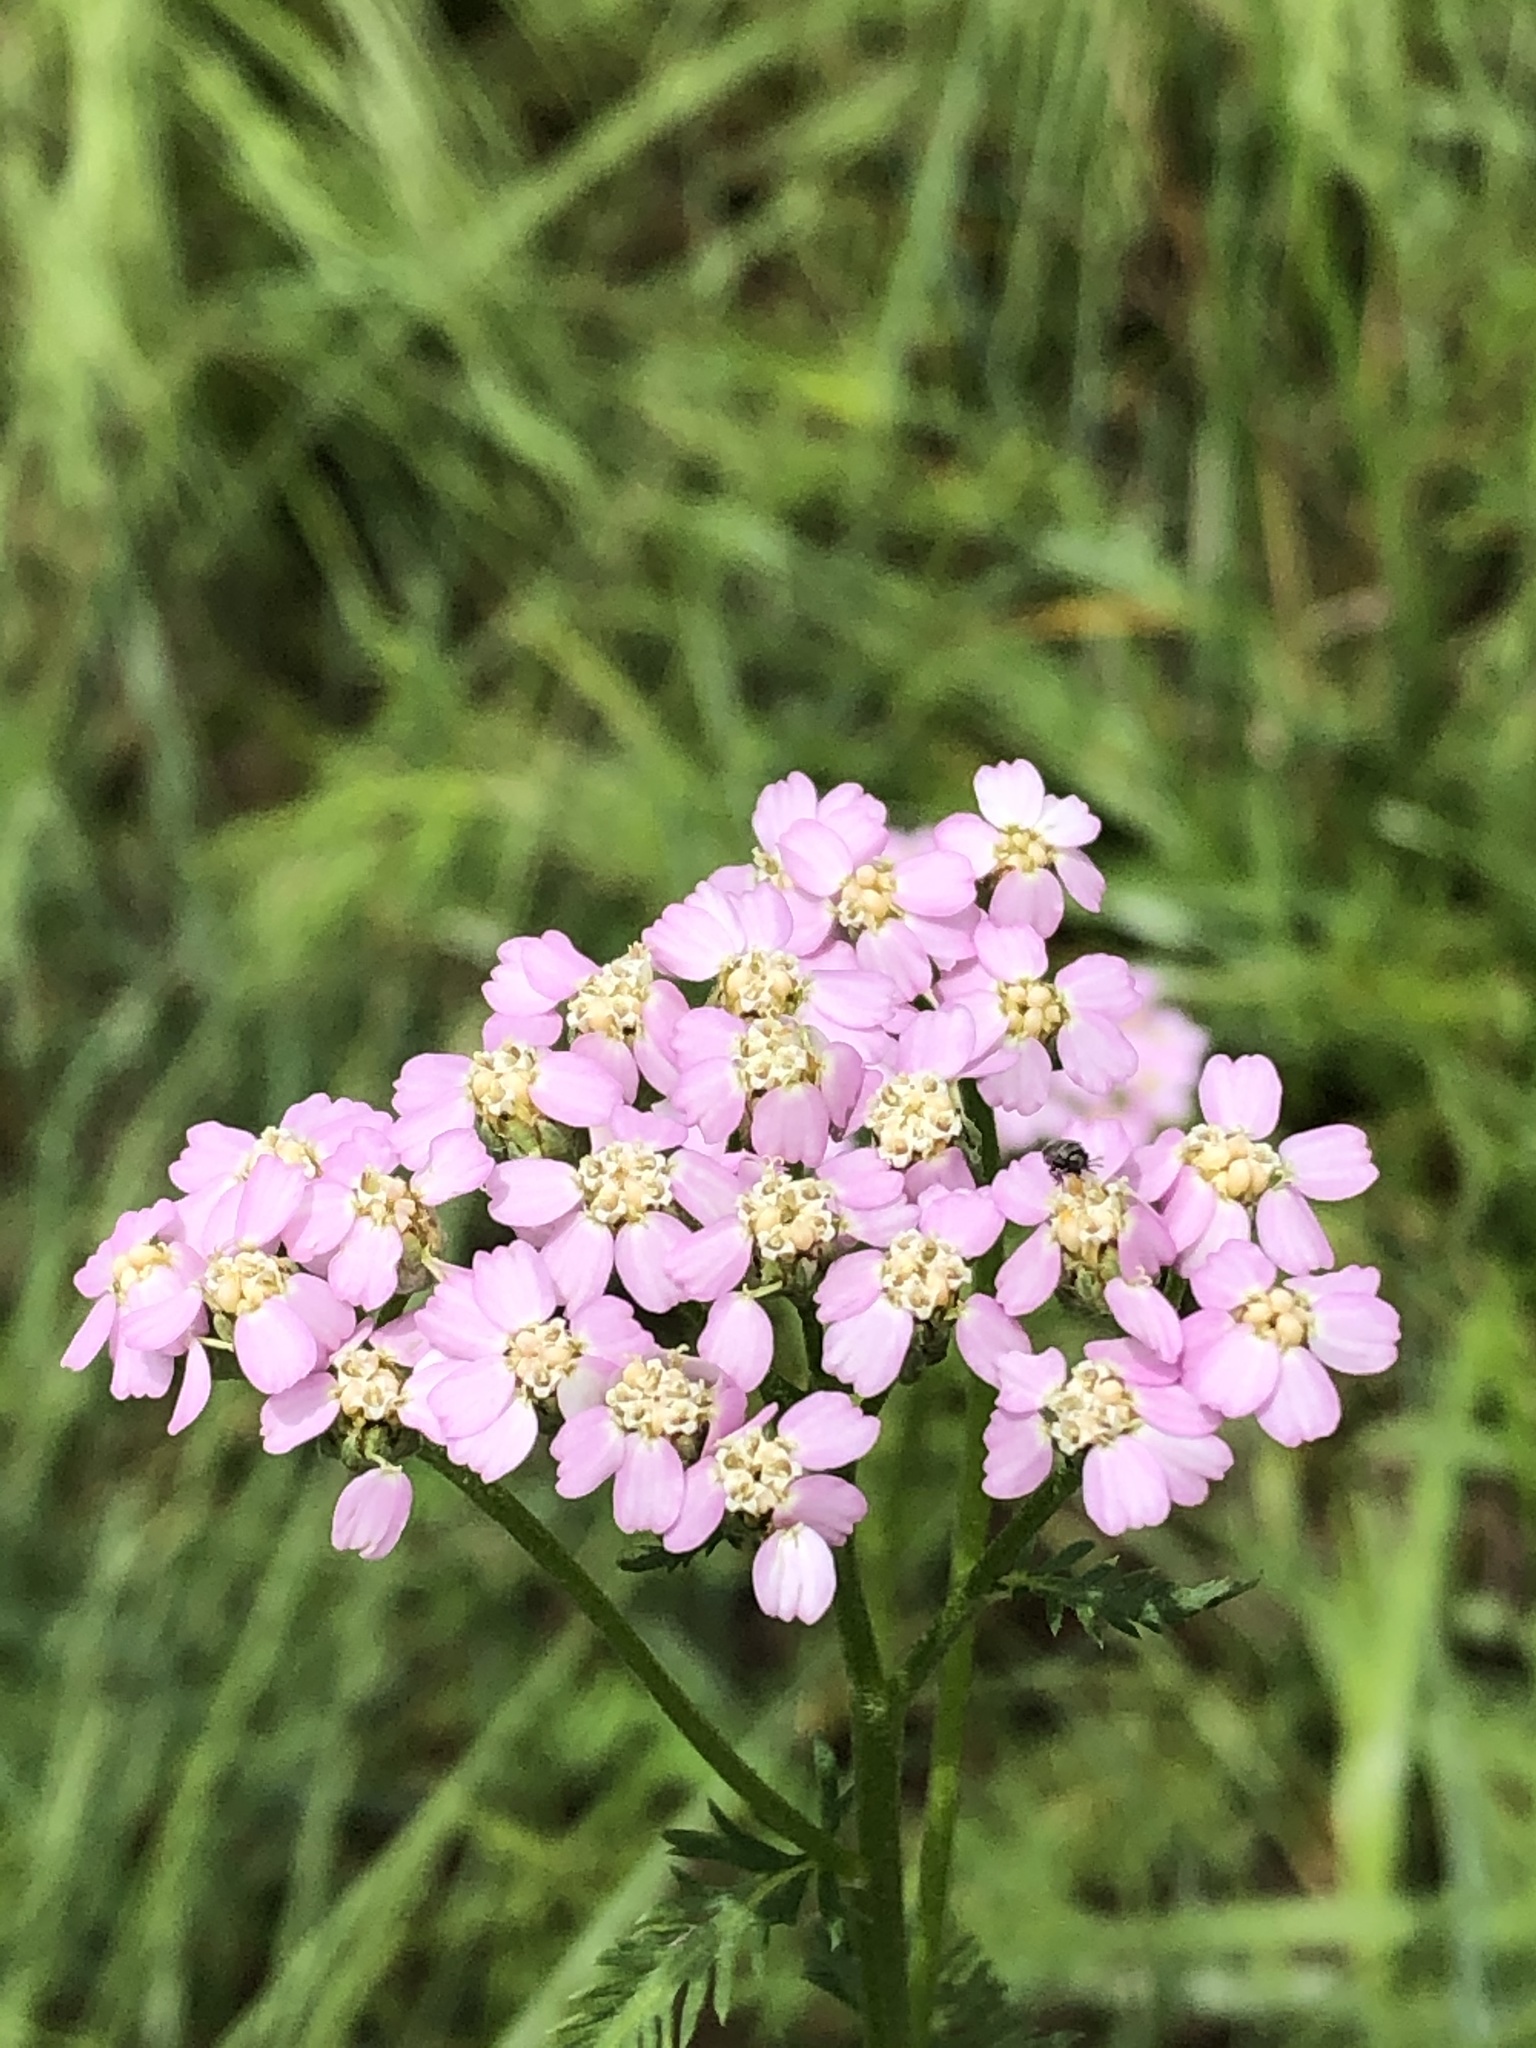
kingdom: Plantae
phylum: Tracheophyta
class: Magnoliopsida
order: Asterales
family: Asteraceae
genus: Achillea
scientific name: Achillea millefolium
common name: Yarrow
